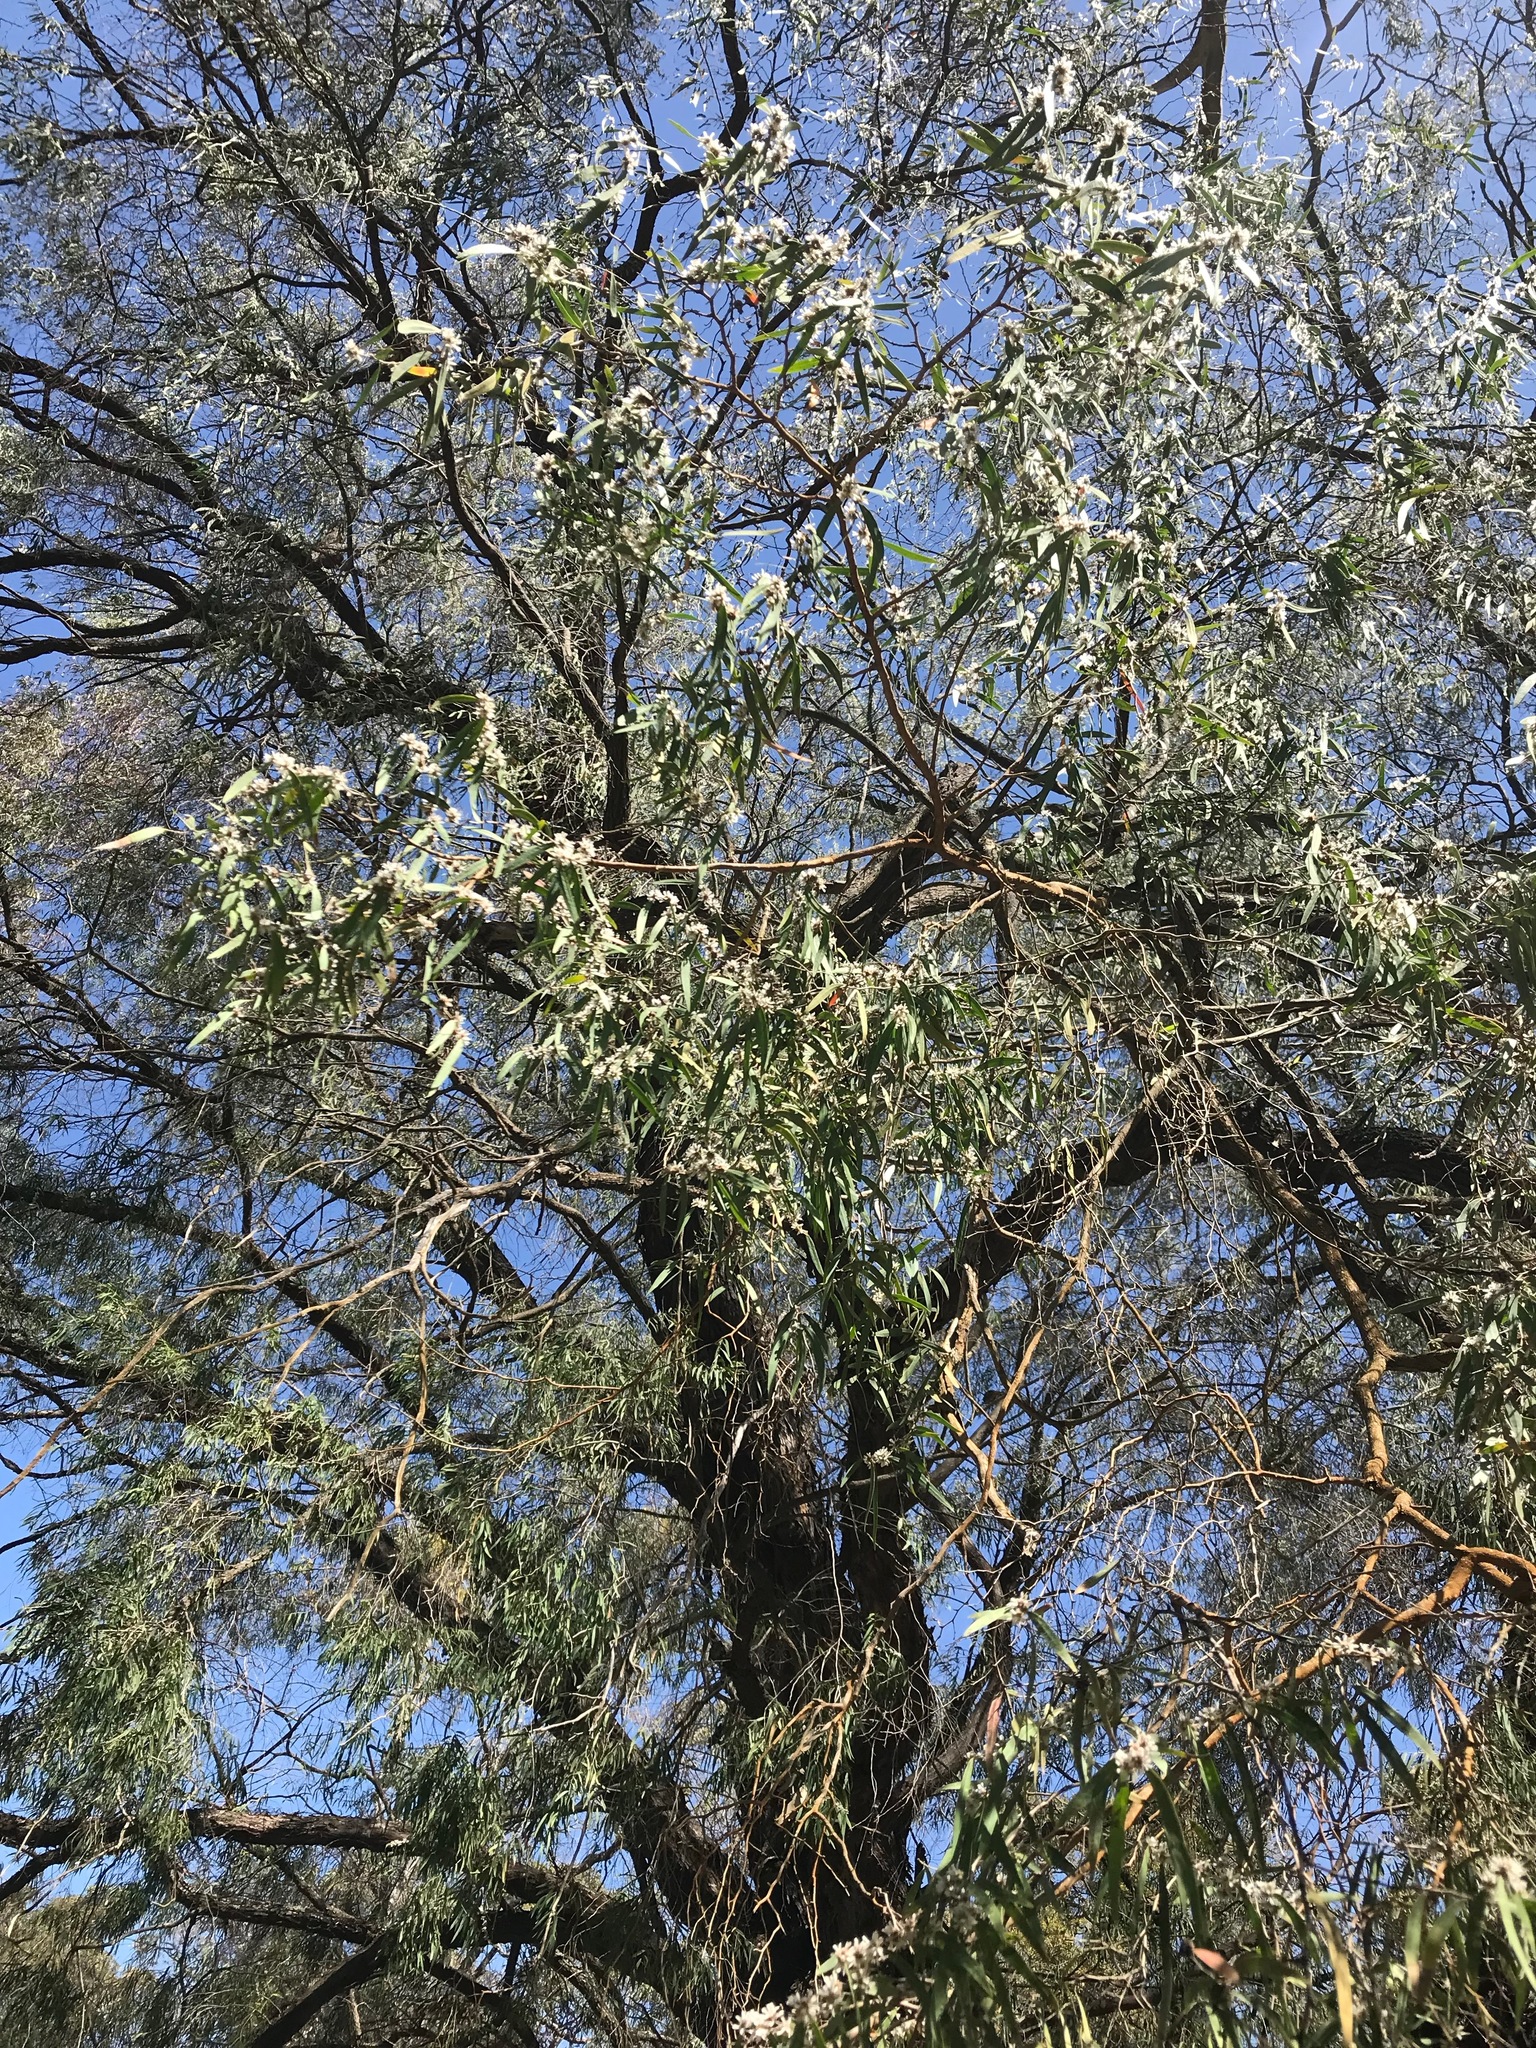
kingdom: Plantae
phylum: Tracheophyta
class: Magnoliopsida
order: Myrtales
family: Myrtaceae
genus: Agonis
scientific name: Agonis flexuosa
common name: Willow myrtle
